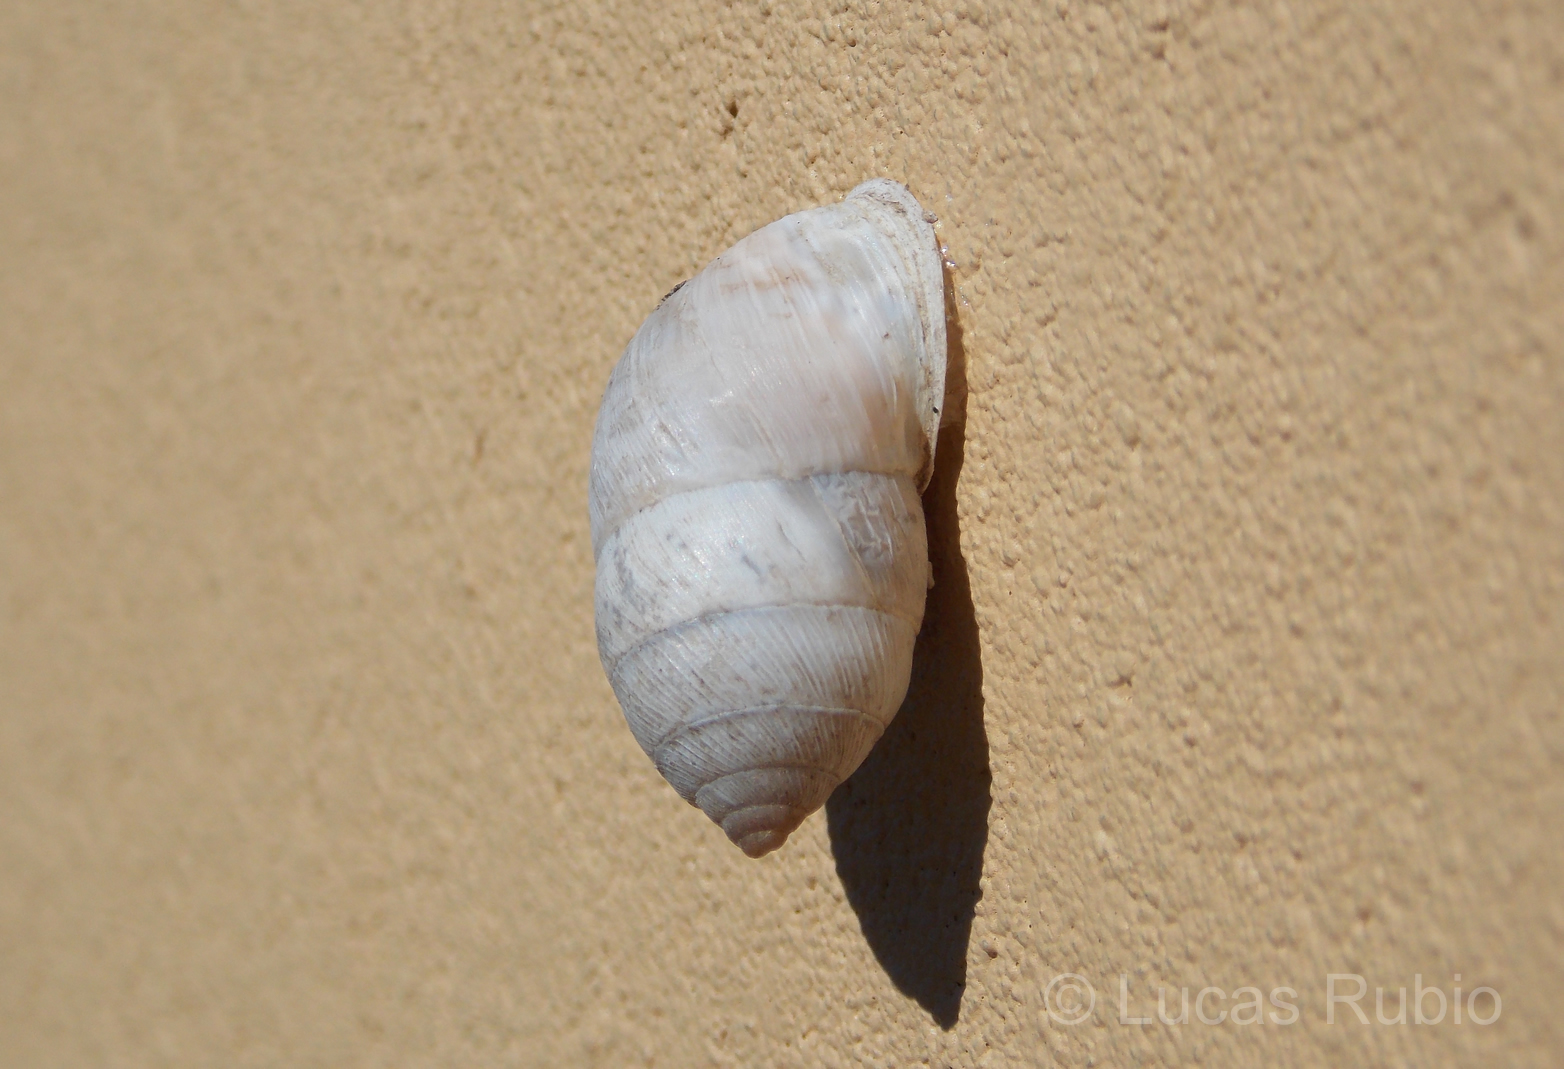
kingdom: Animalia
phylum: Mollusca
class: Gastropoda
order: Stylommatophora
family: Odontostomidae
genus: Plagiodontes
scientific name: Plagiodontes daedaleus
